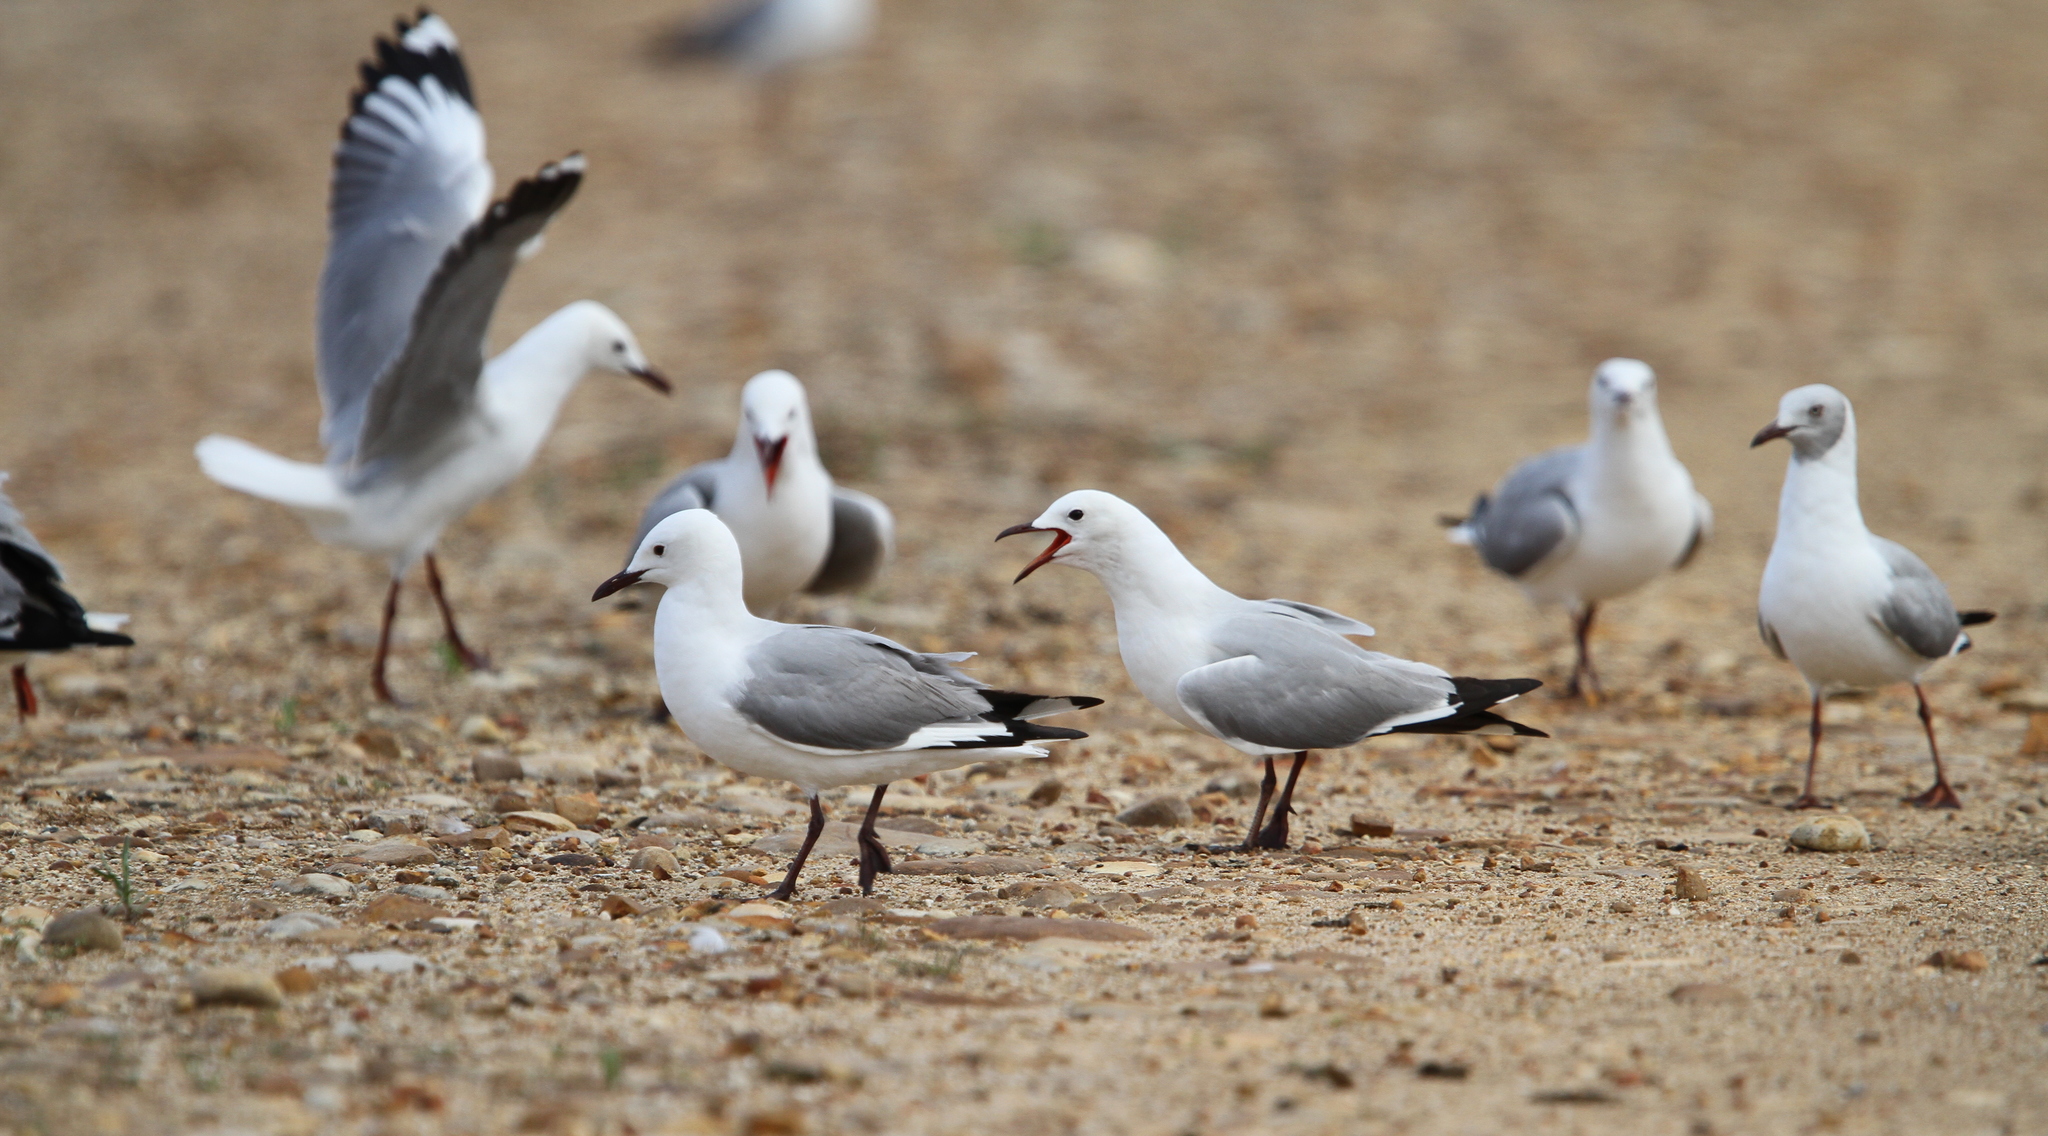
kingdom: Animalia
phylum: Chordata
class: Aves
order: Charadriiformes
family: Laridae
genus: Chroicocephalus
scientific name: Chroicocephalus hartlaubii
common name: Hartlaub's gull
